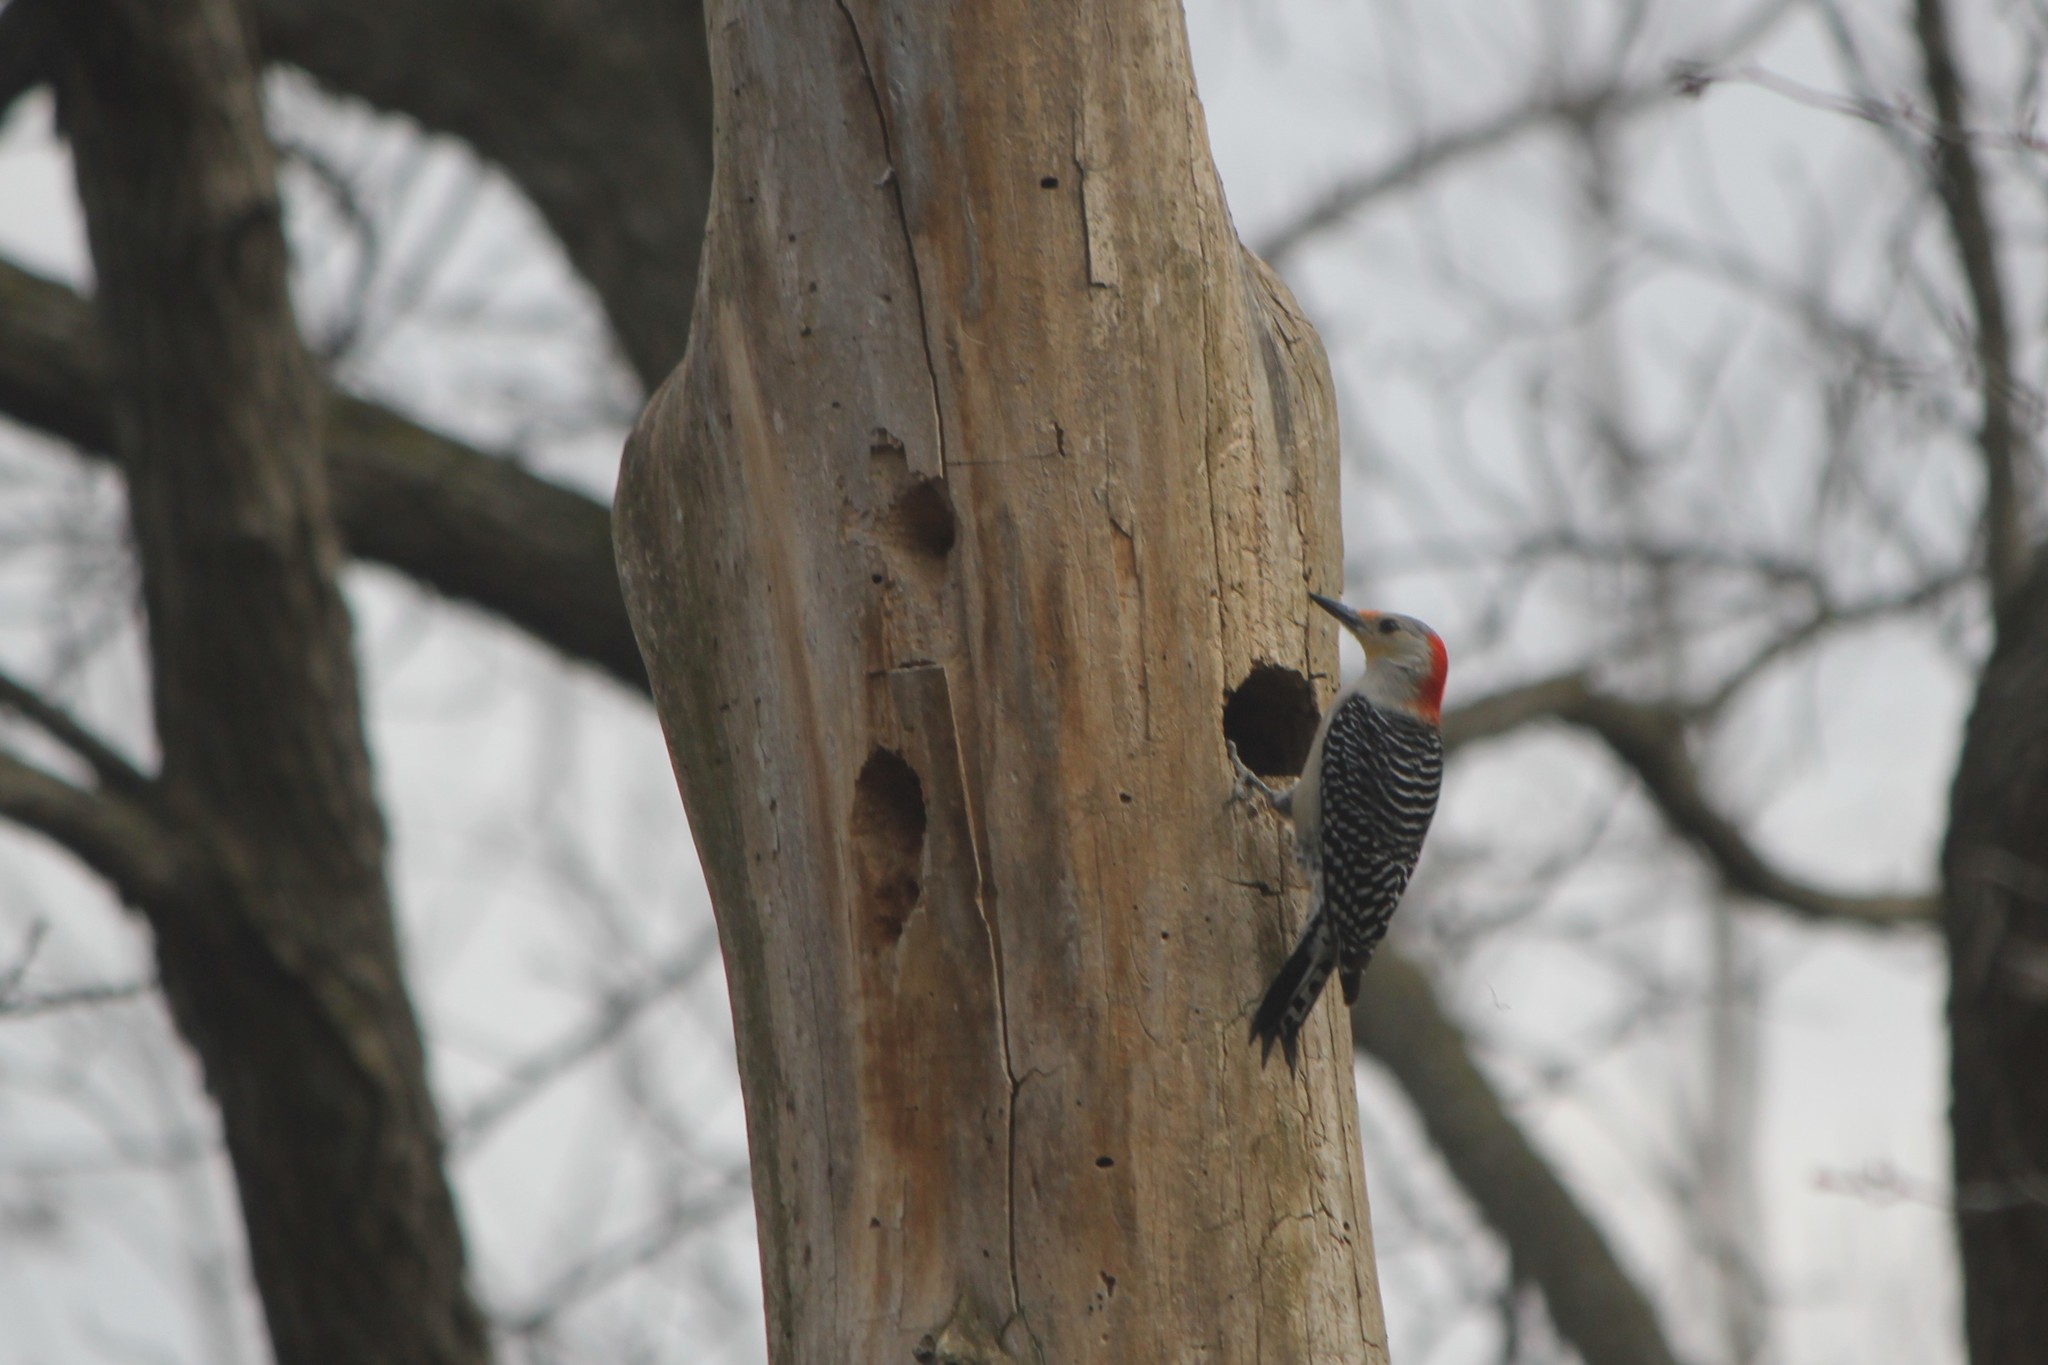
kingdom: Animalia
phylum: Chordata
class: Aves
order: Piciformes
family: Picidae
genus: Melanerpes
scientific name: Melanerpes carolinus
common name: Red-bellied woodpecker
